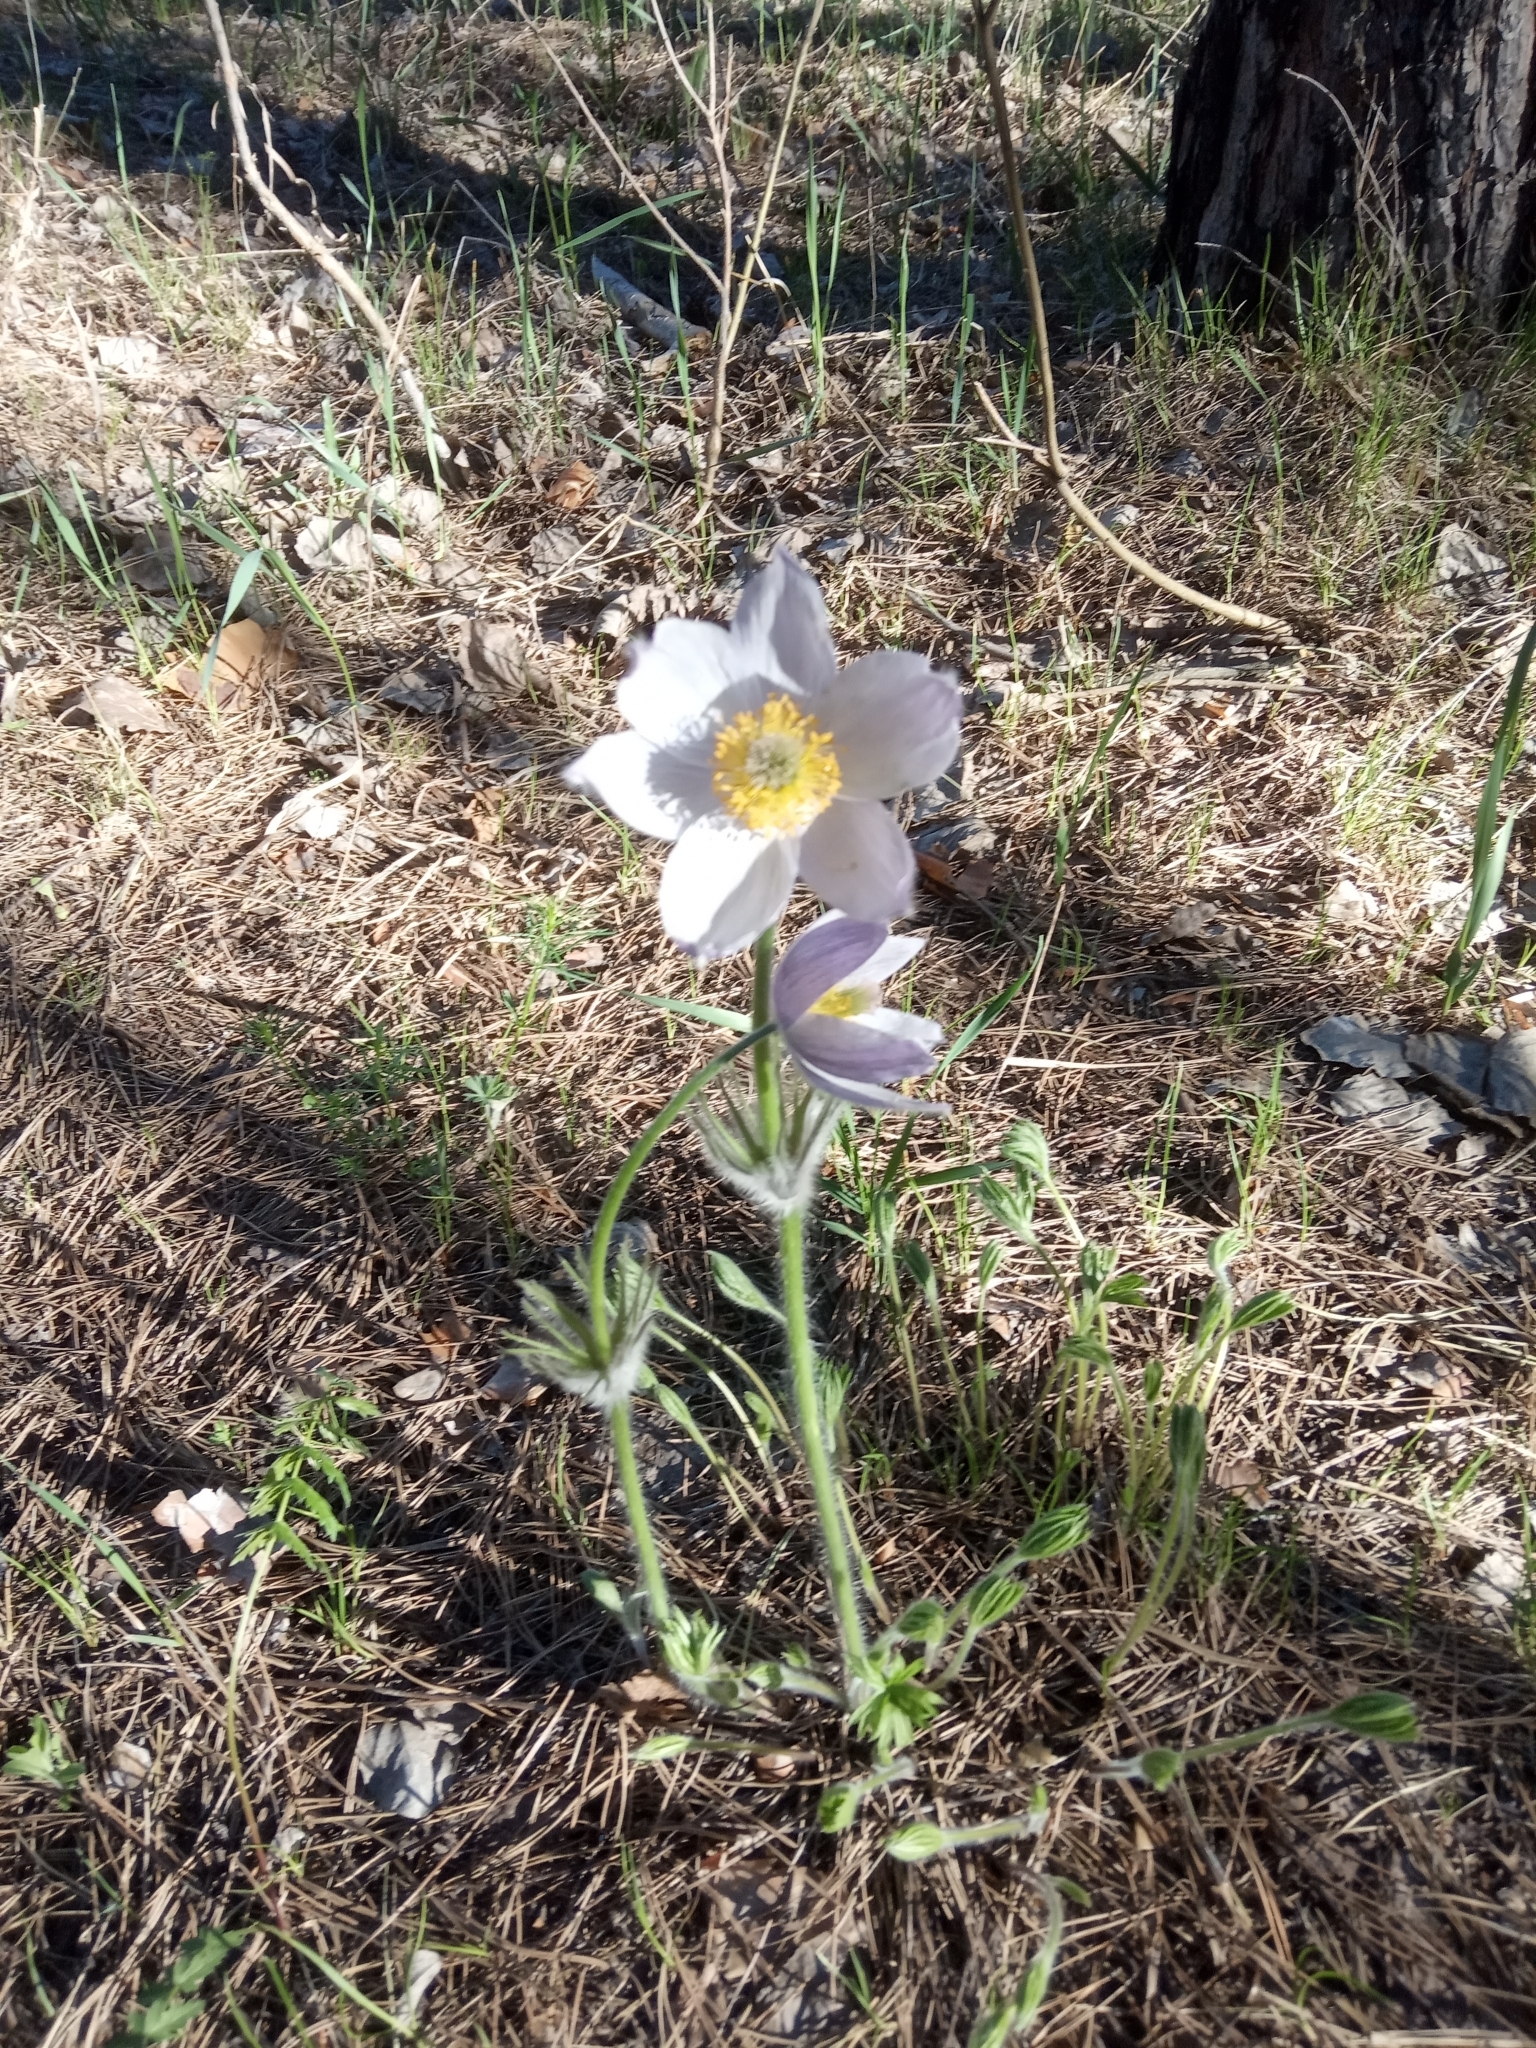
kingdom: Plantae
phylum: Tracheophyta
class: Magnoliopsida
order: Ranunculales
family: Ranunculaceae
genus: Pulsatilla
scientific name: Pulsatilla patens
